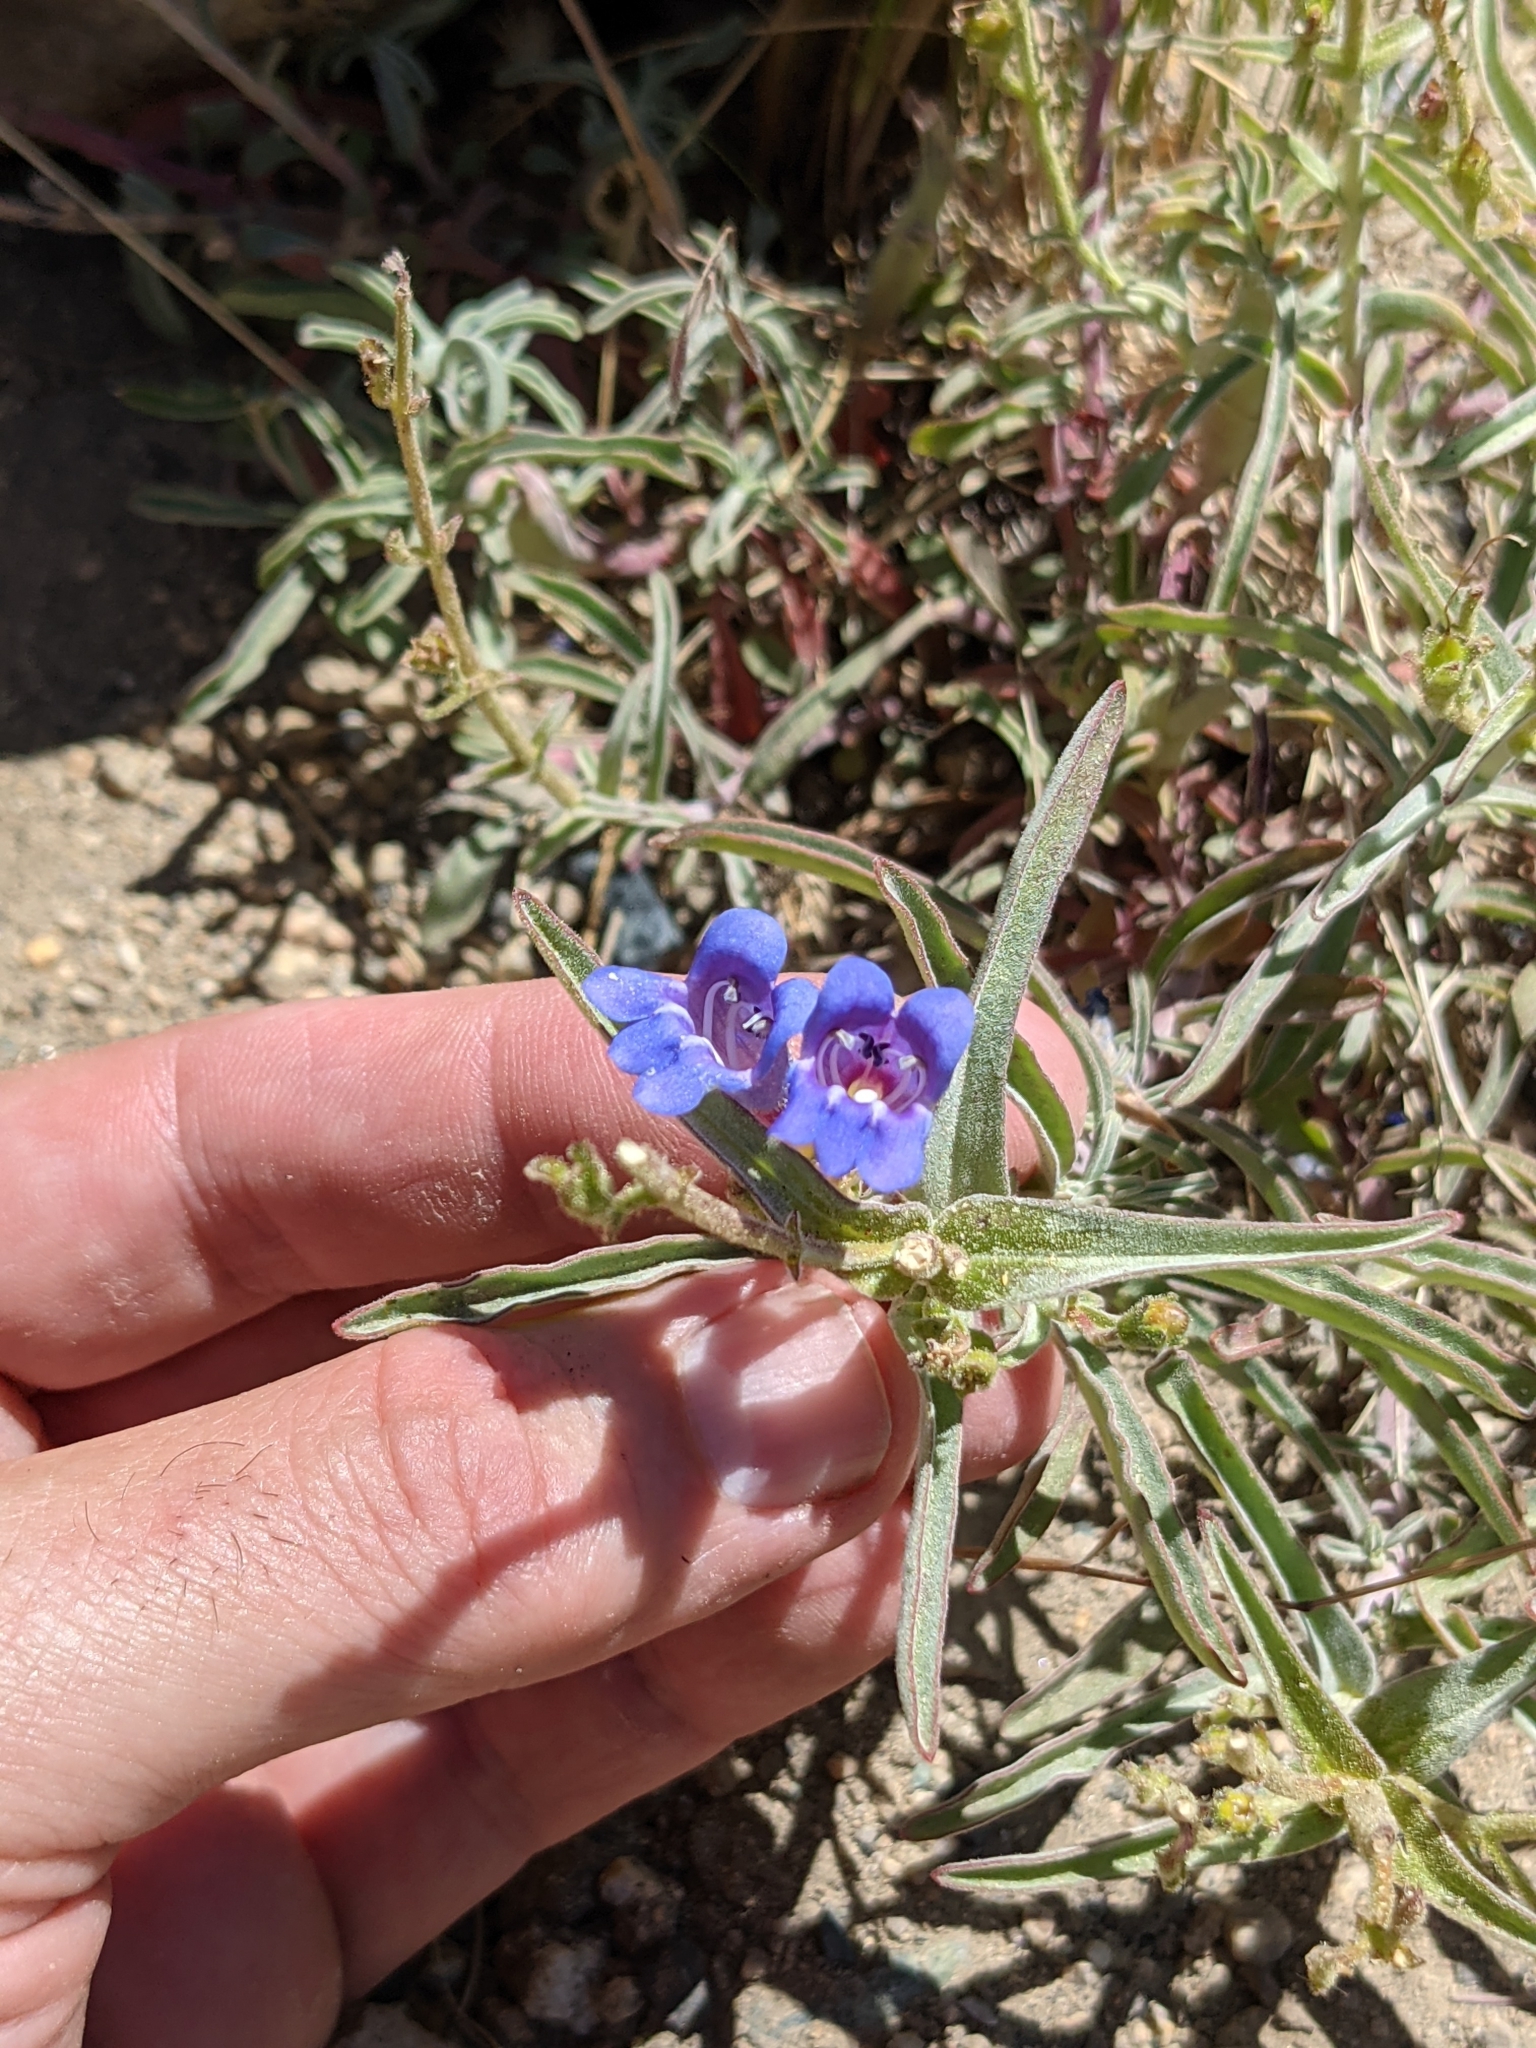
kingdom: Plantae
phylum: Tracheophyta
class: Magnoliopsida
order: Lamiales
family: Plantaginaceae
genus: Penstemon
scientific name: Penstemon laetus
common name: Gay penstemon
